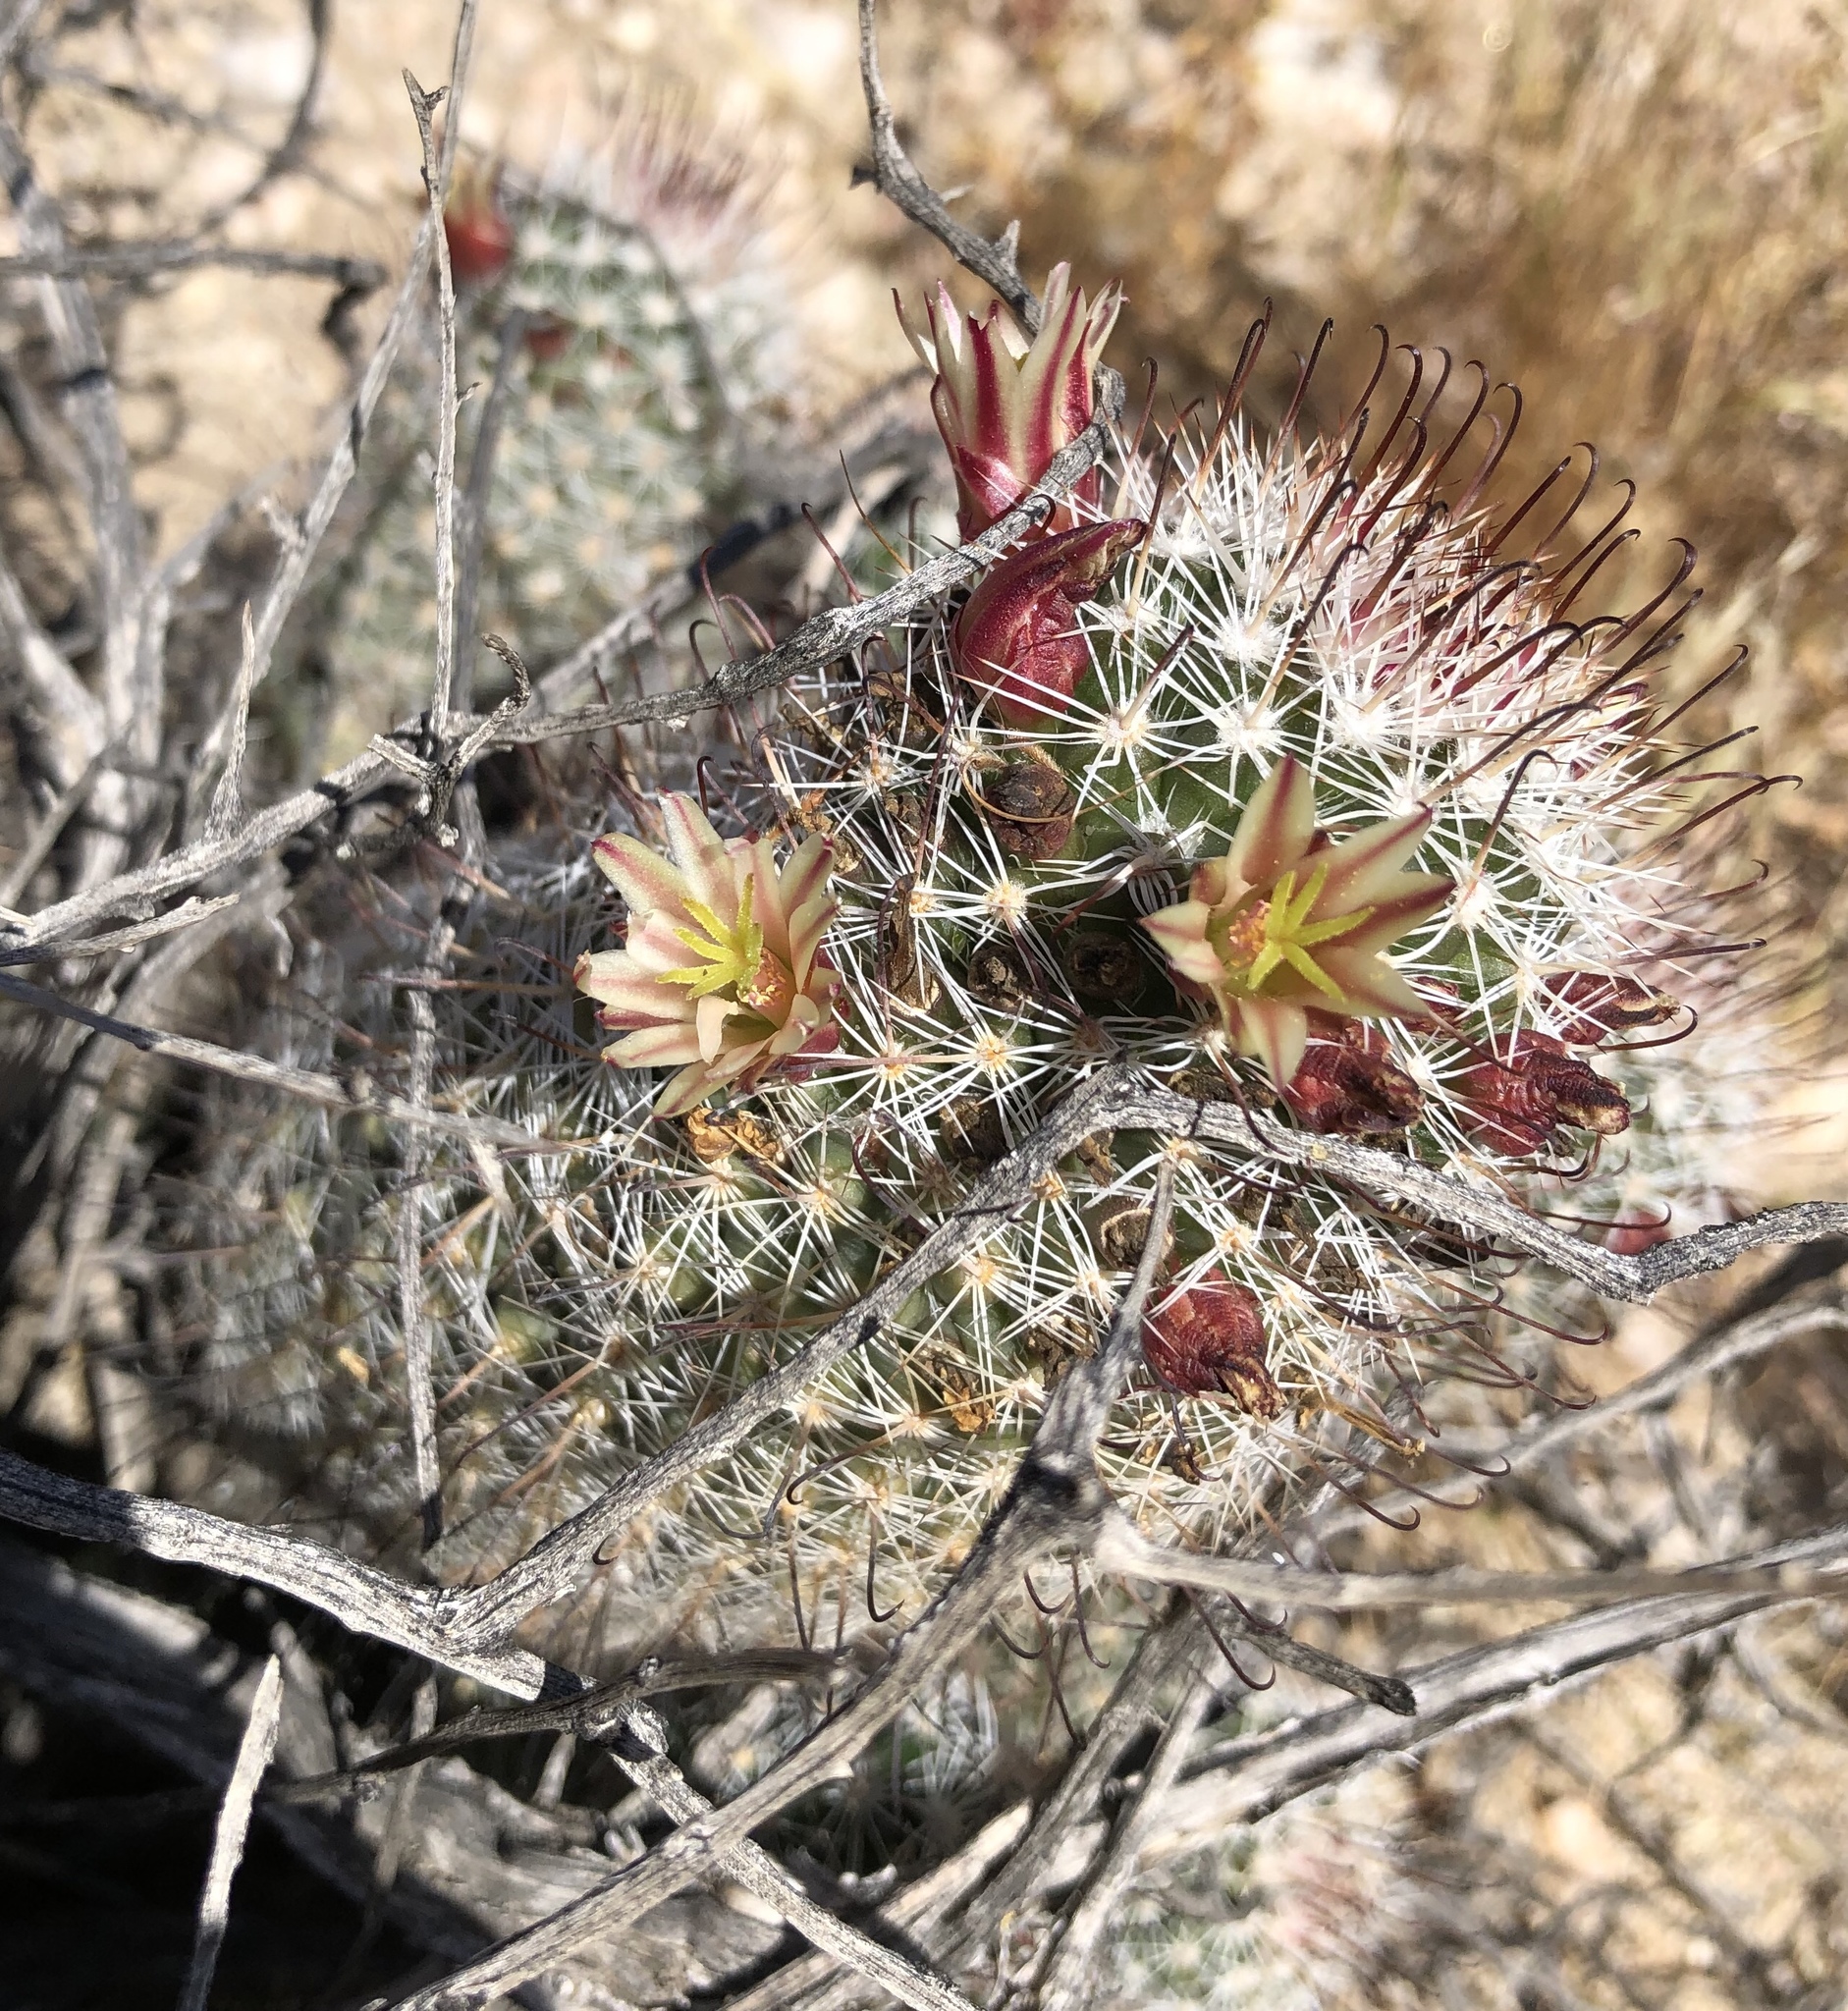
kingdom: Plantae
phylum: Tracheophyta
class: Magnoliopsida
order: Caryophyllales
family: Cactaceae
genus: Cochemiea
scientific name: Cochemiea dioica
